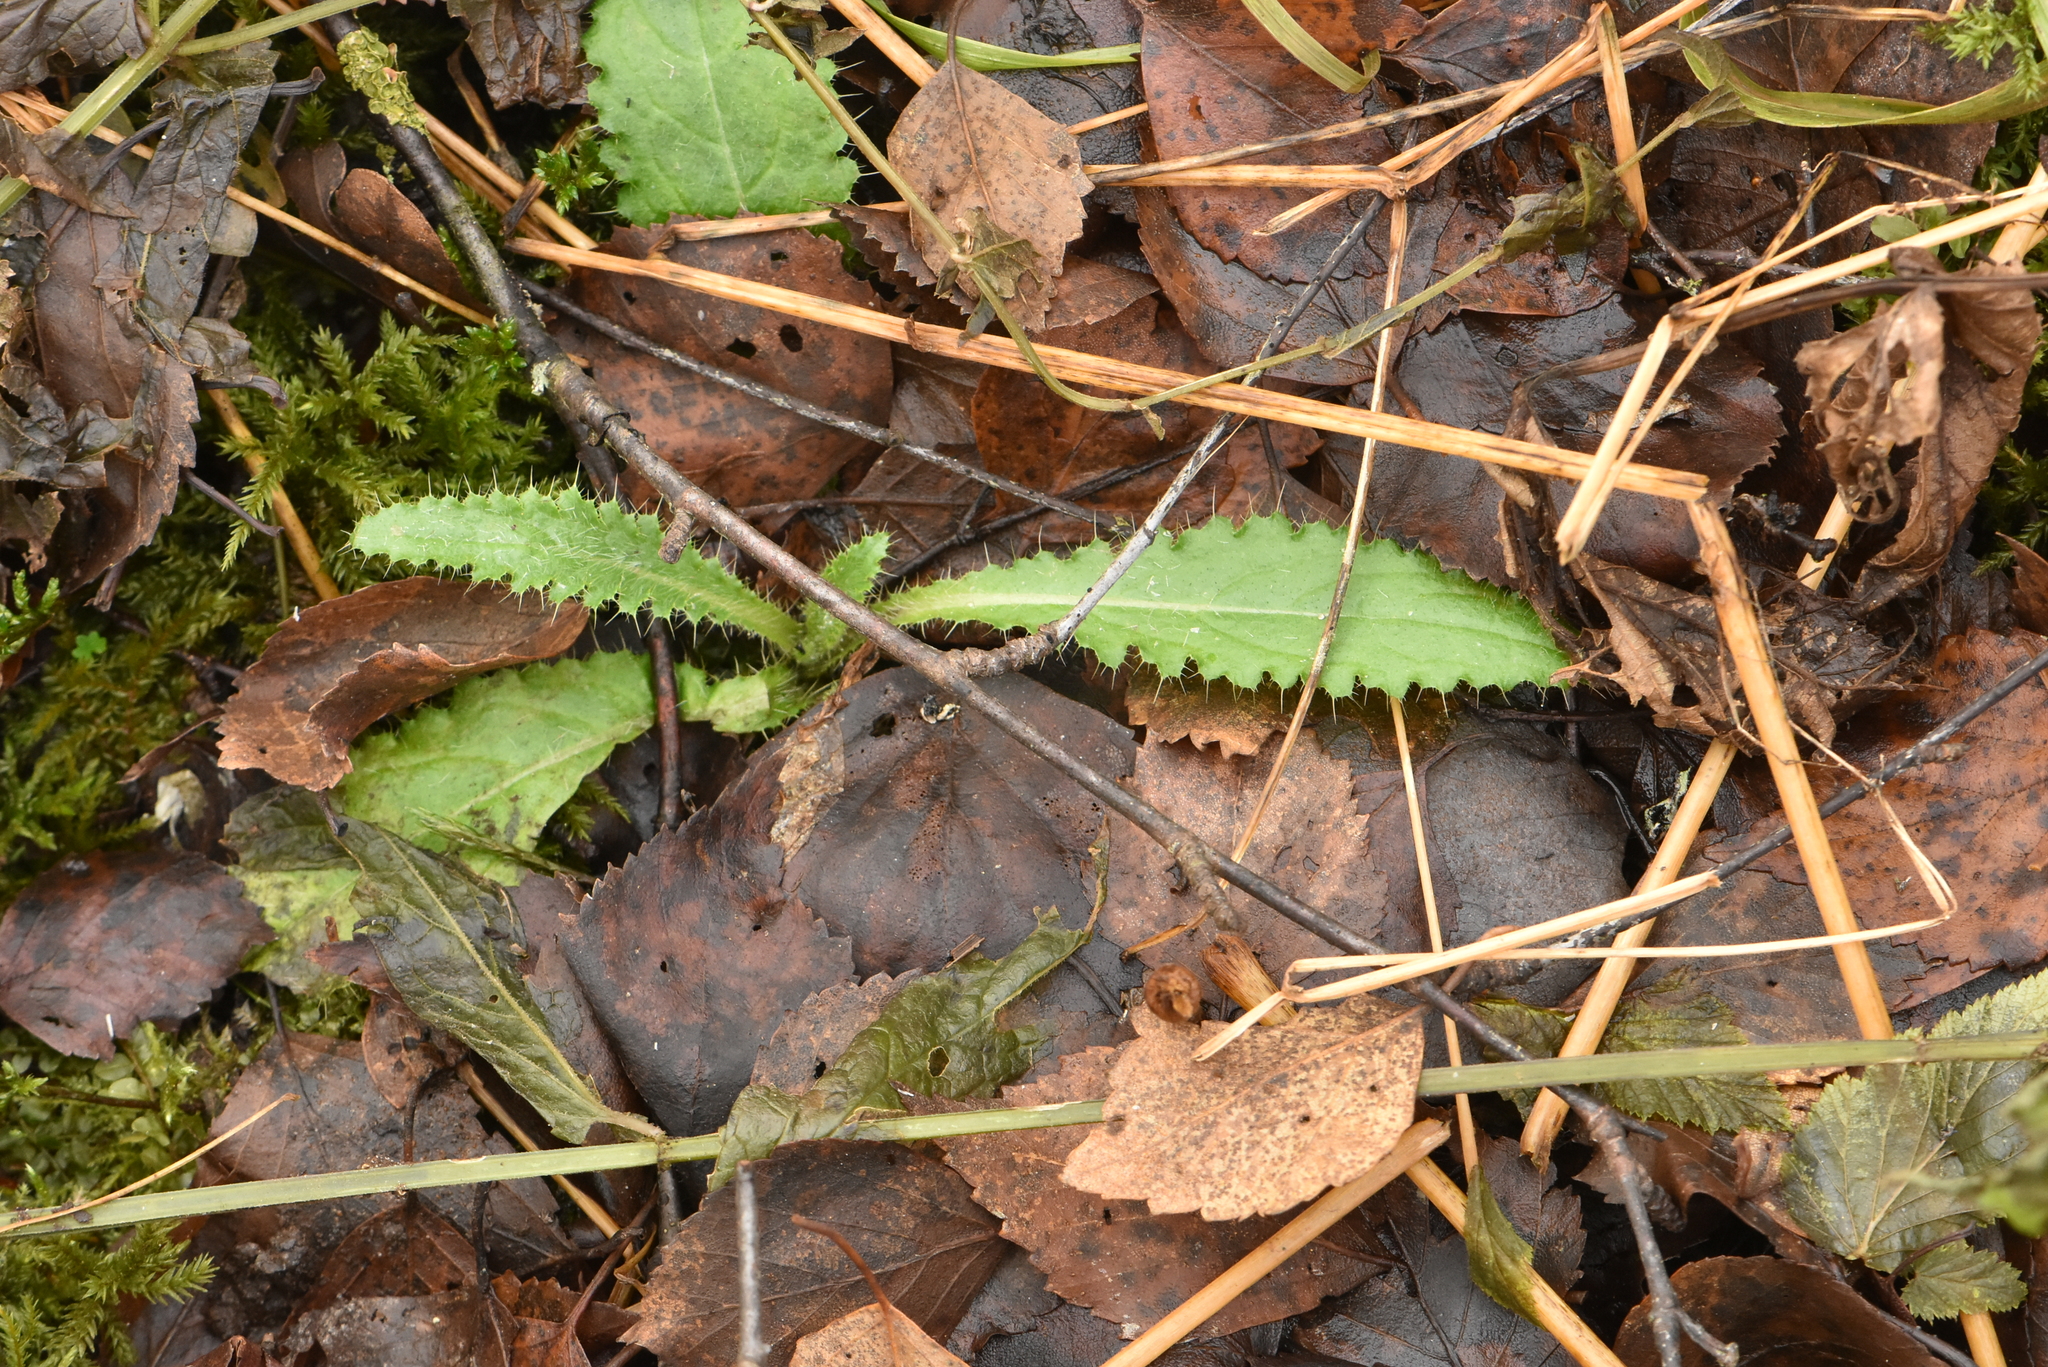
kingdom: Plantae
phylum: Tracheophyta
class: Magnoliopsida
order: Asterales
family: Asteraceae
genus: Cirsium
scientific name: Cirsium palustre
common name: Marsh thistle
